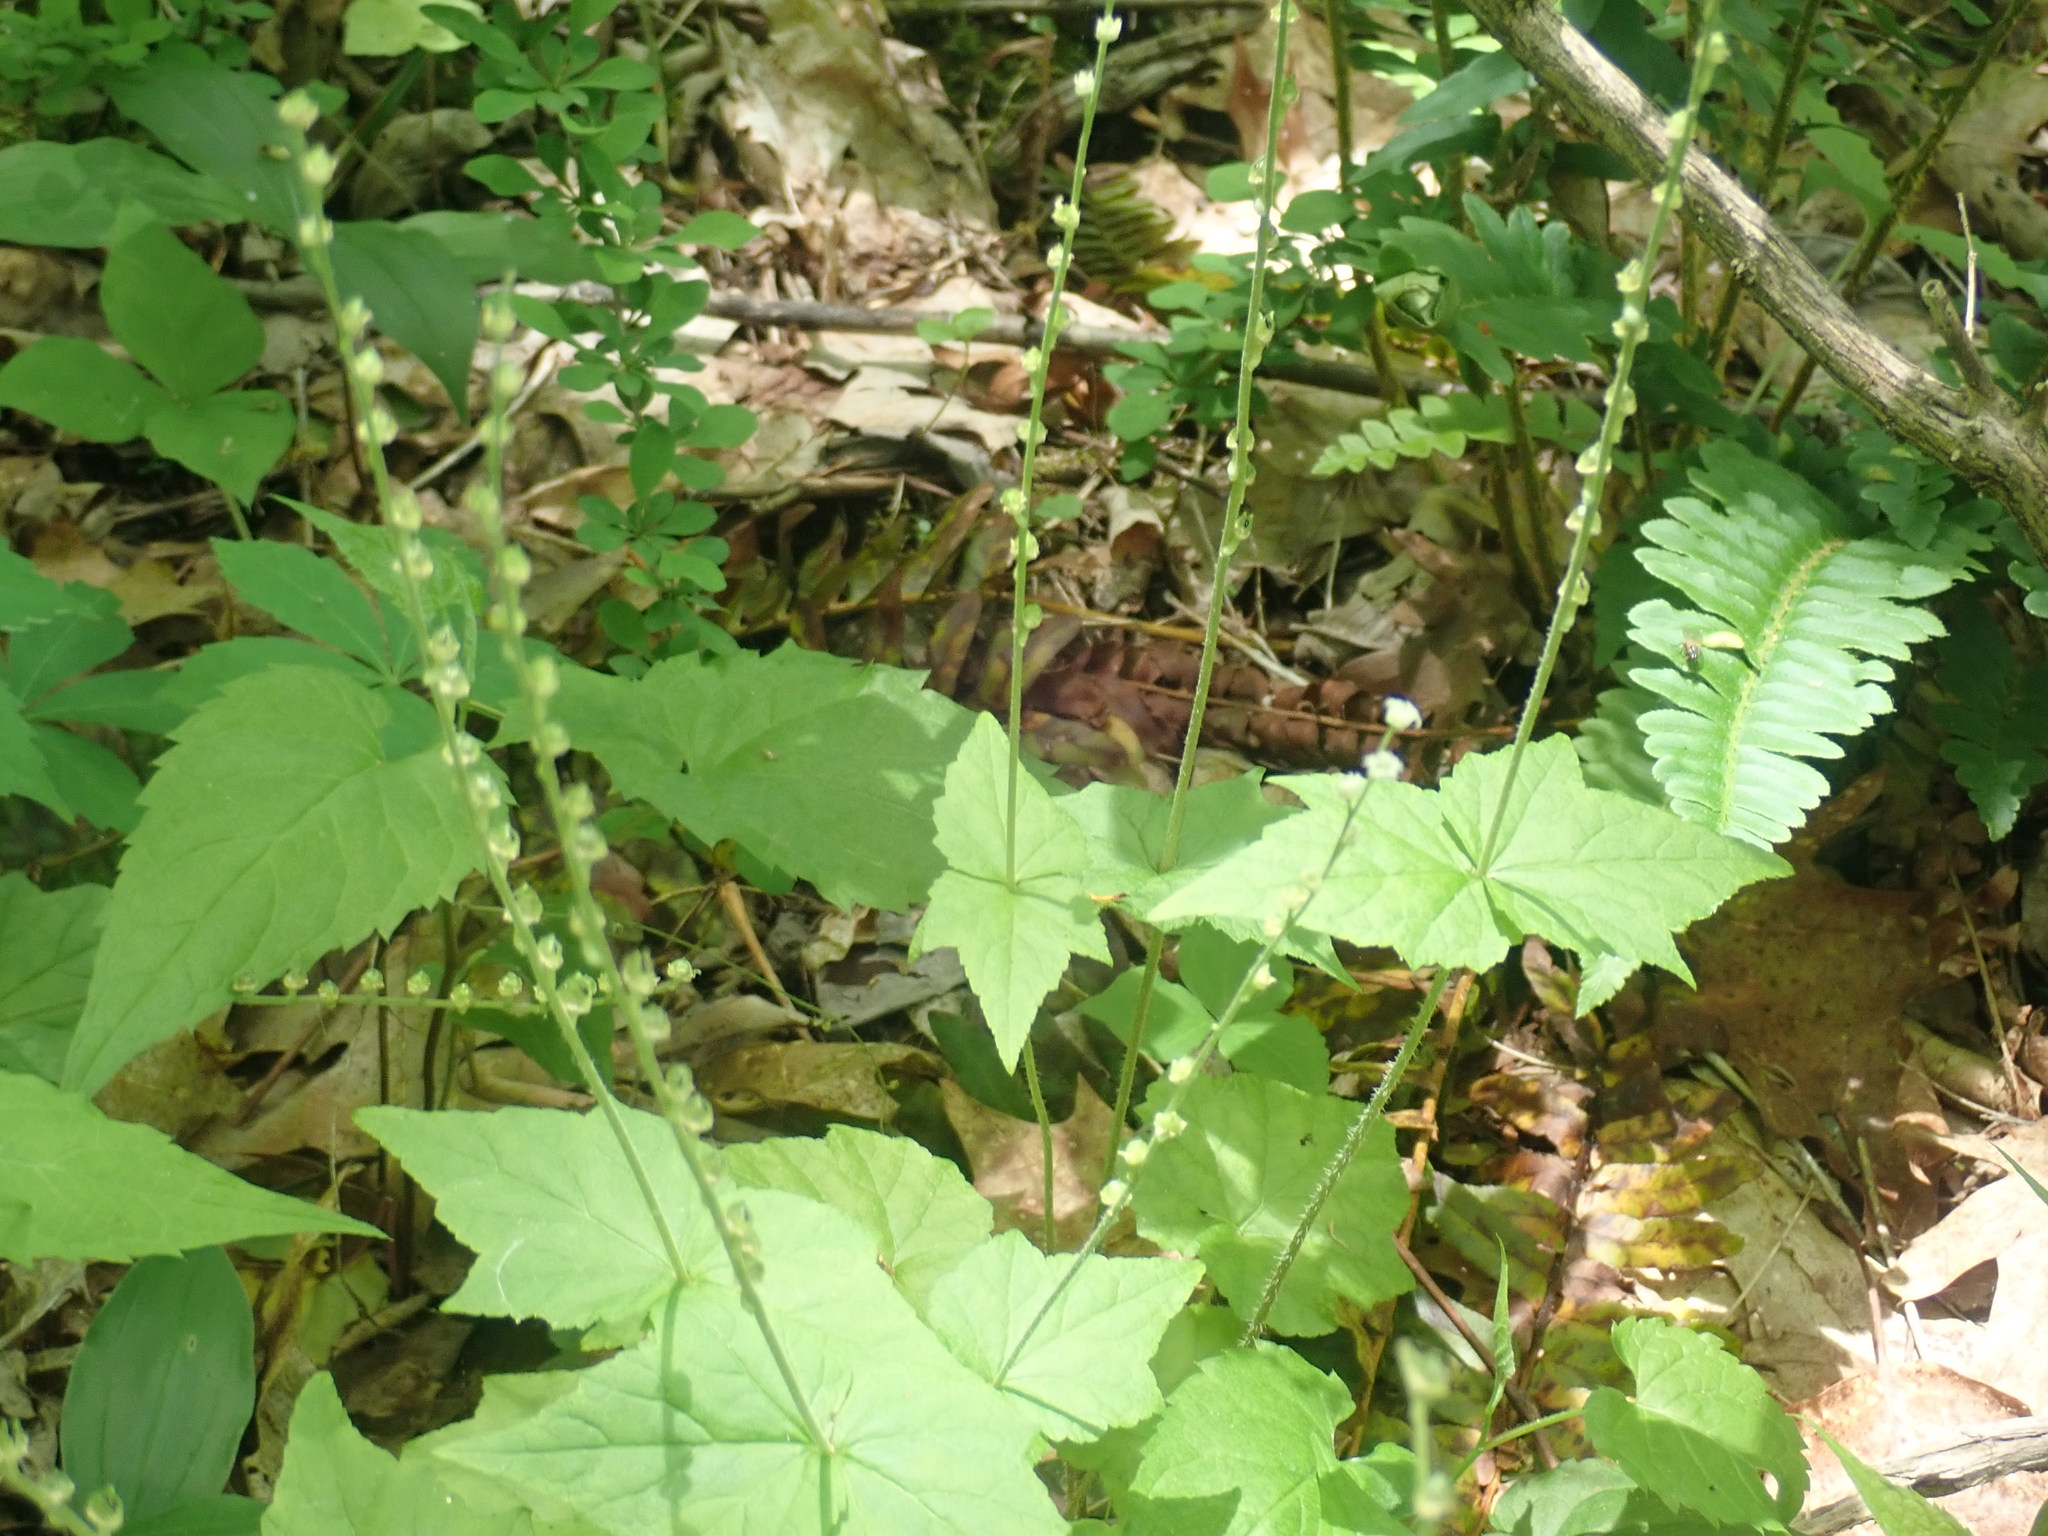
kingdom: Plantae
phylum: Tracheophyta
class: Magnoliopsida
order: Saxifragales
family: Saxifragaceae
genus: Mitella
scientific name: Mitella diphylla
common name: Coolwort
